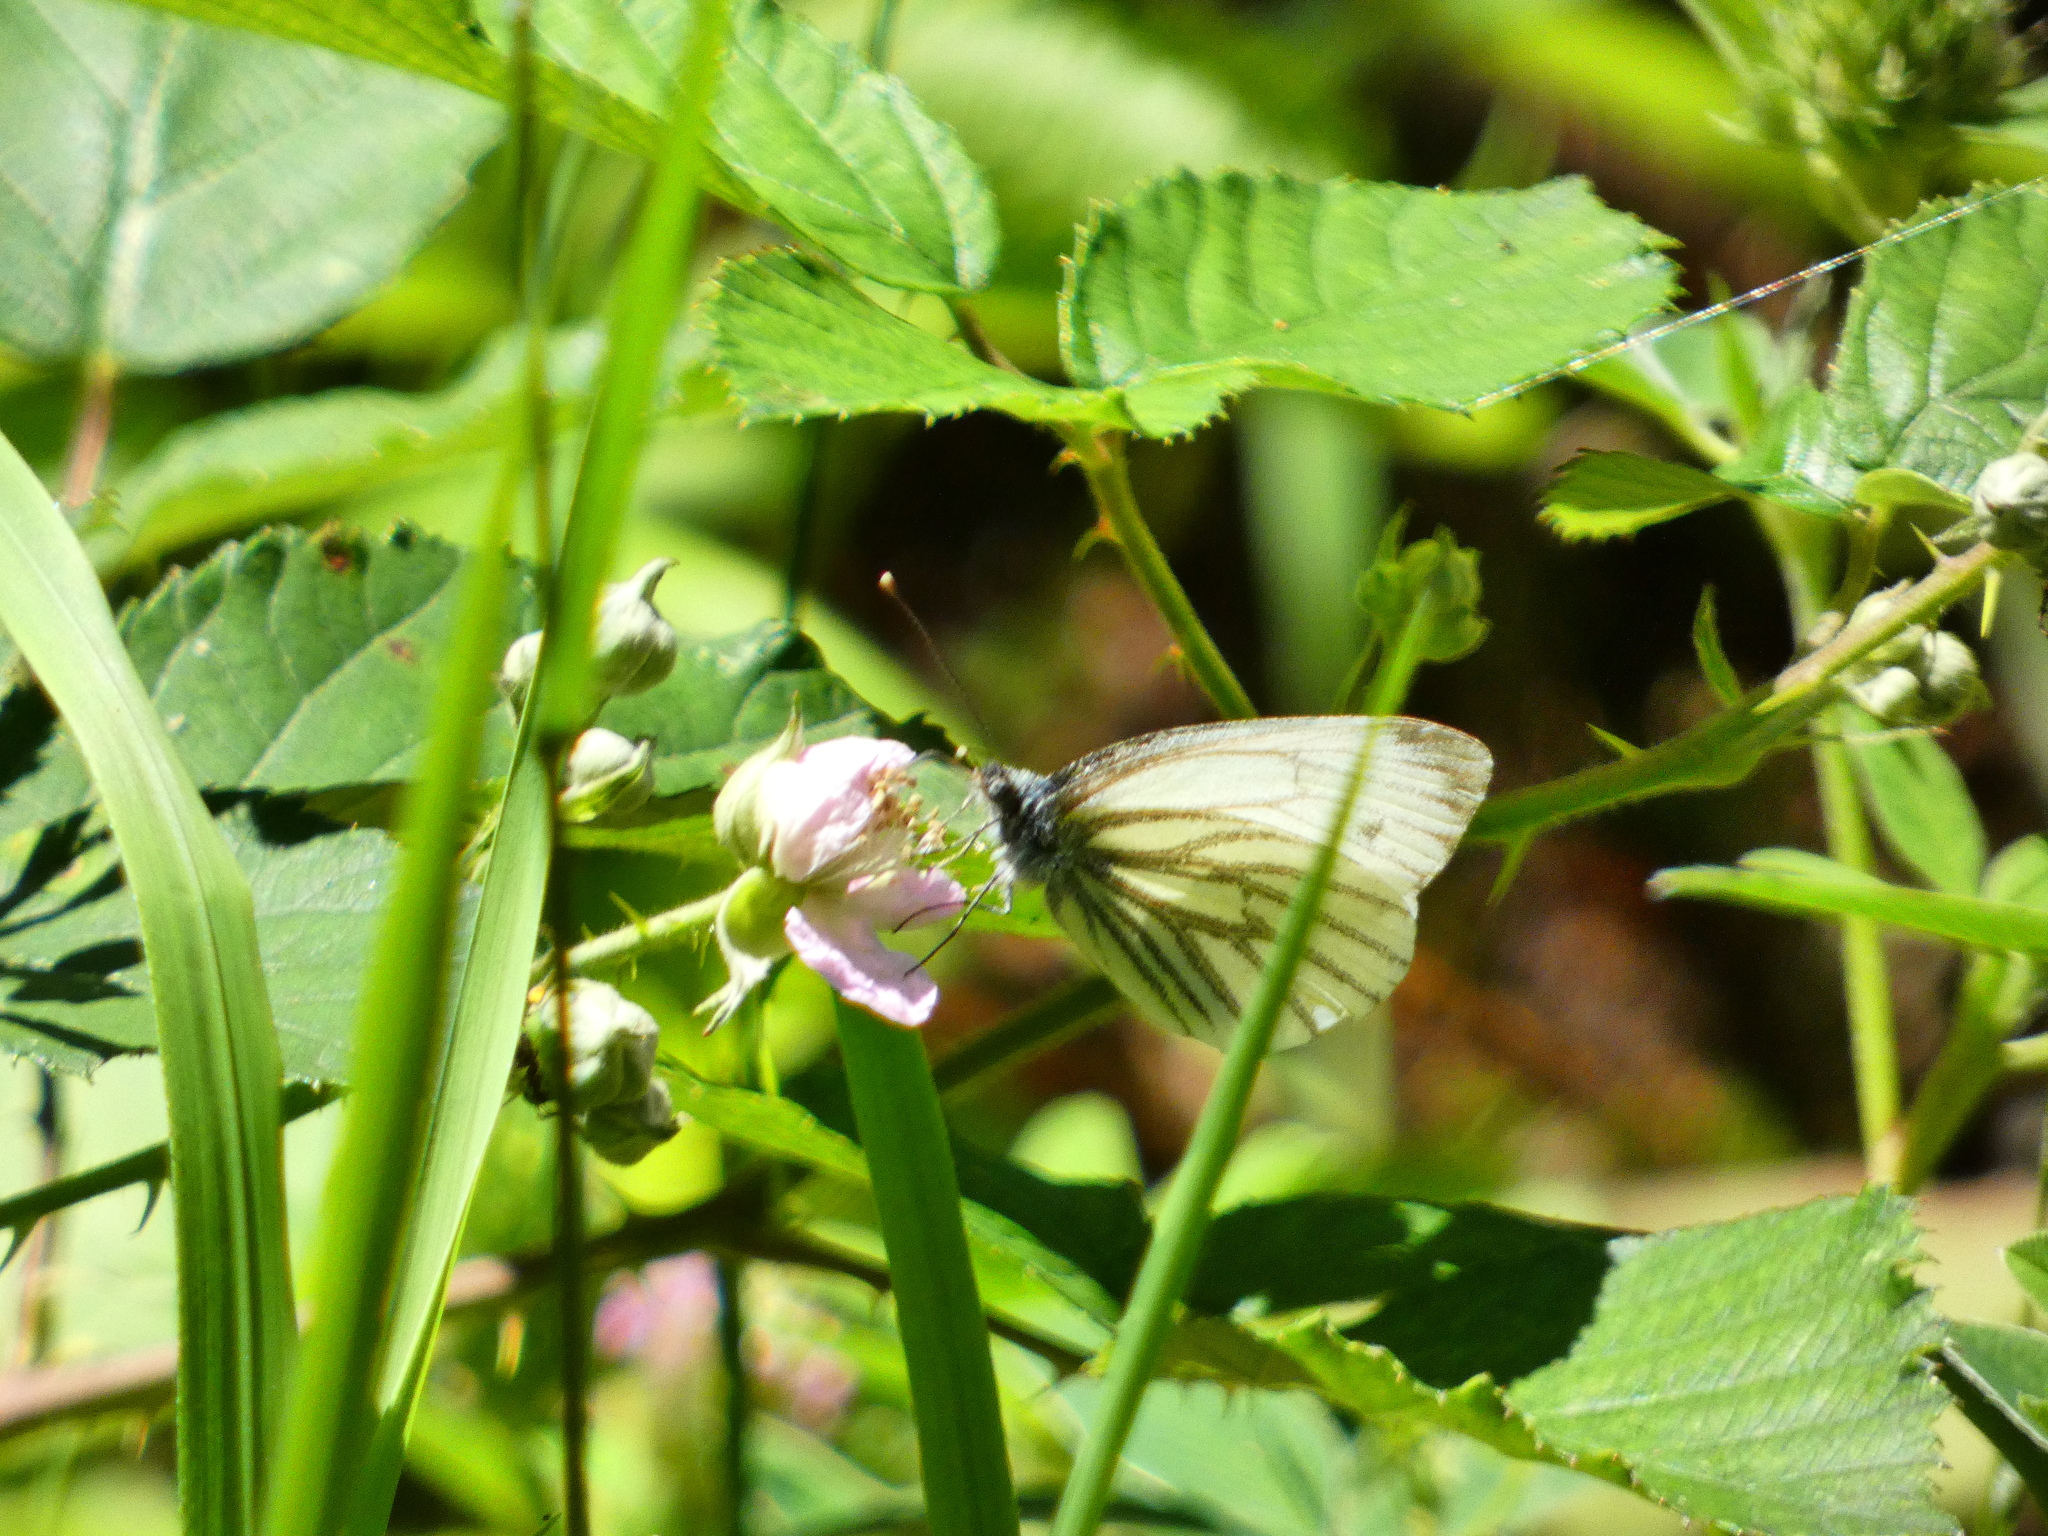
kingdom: Animalia
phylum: Arthropoda
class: Insecta
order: Lepidoptera
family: Pieridae
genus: Pieris
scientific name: Pieris napi
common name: Green-veined white
